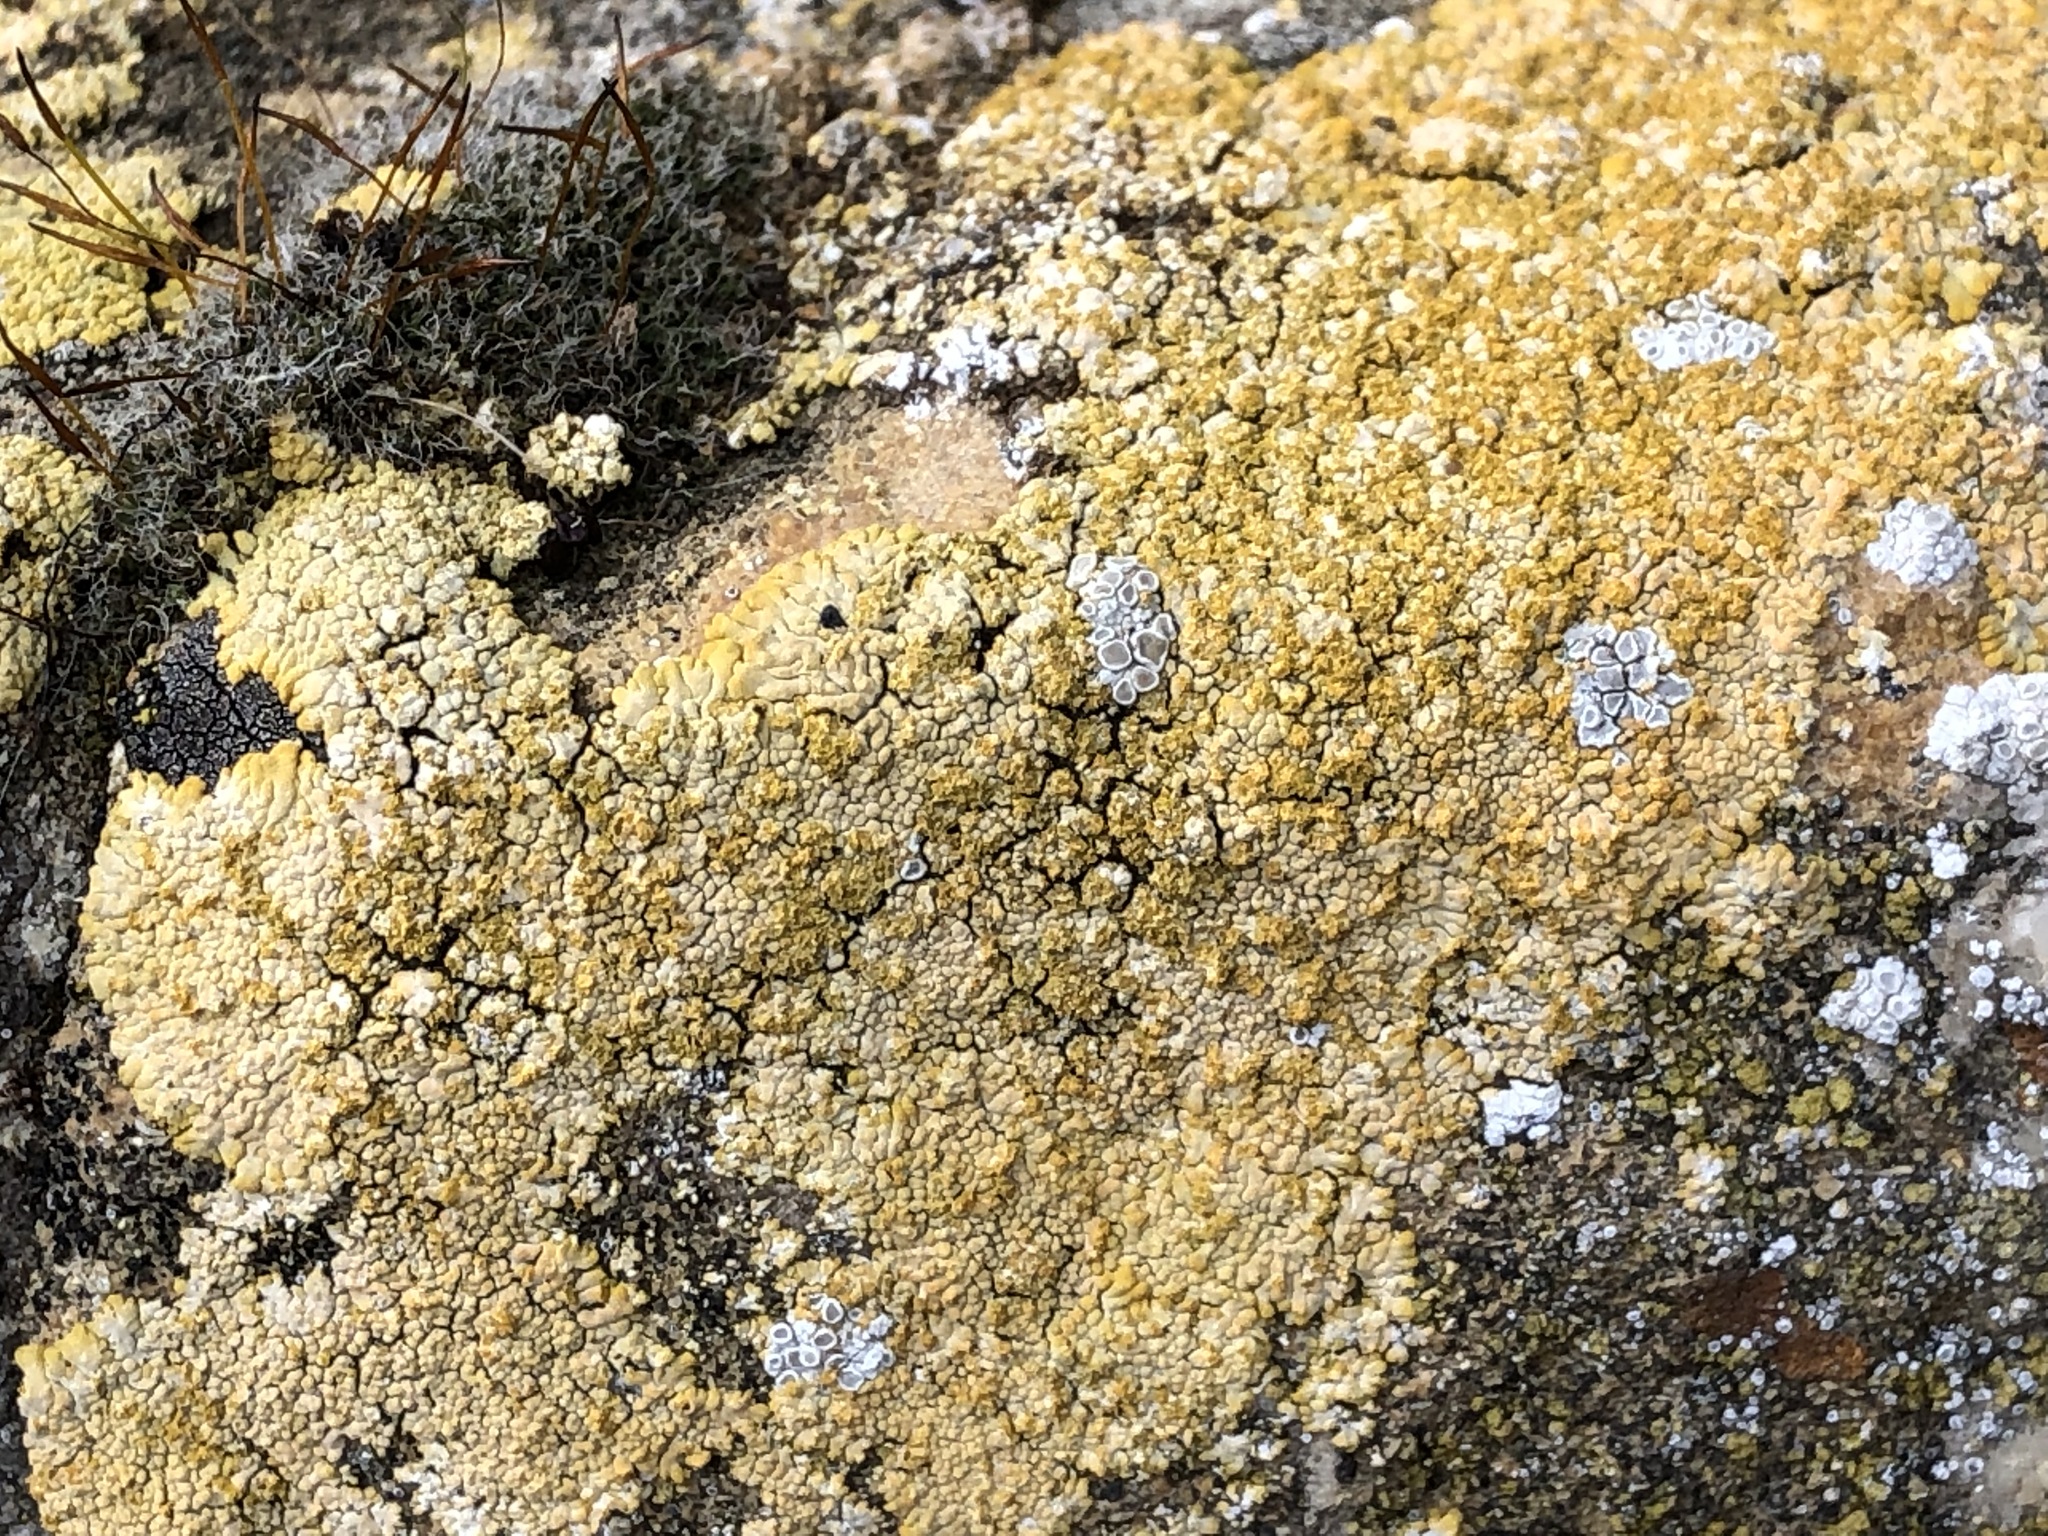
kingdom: Fungi
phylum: Ascomycota
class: Lecanoromycetes
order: Teloschistales
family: Teloschistaceae
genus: Calogaya
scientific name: Calogaya decipiens
